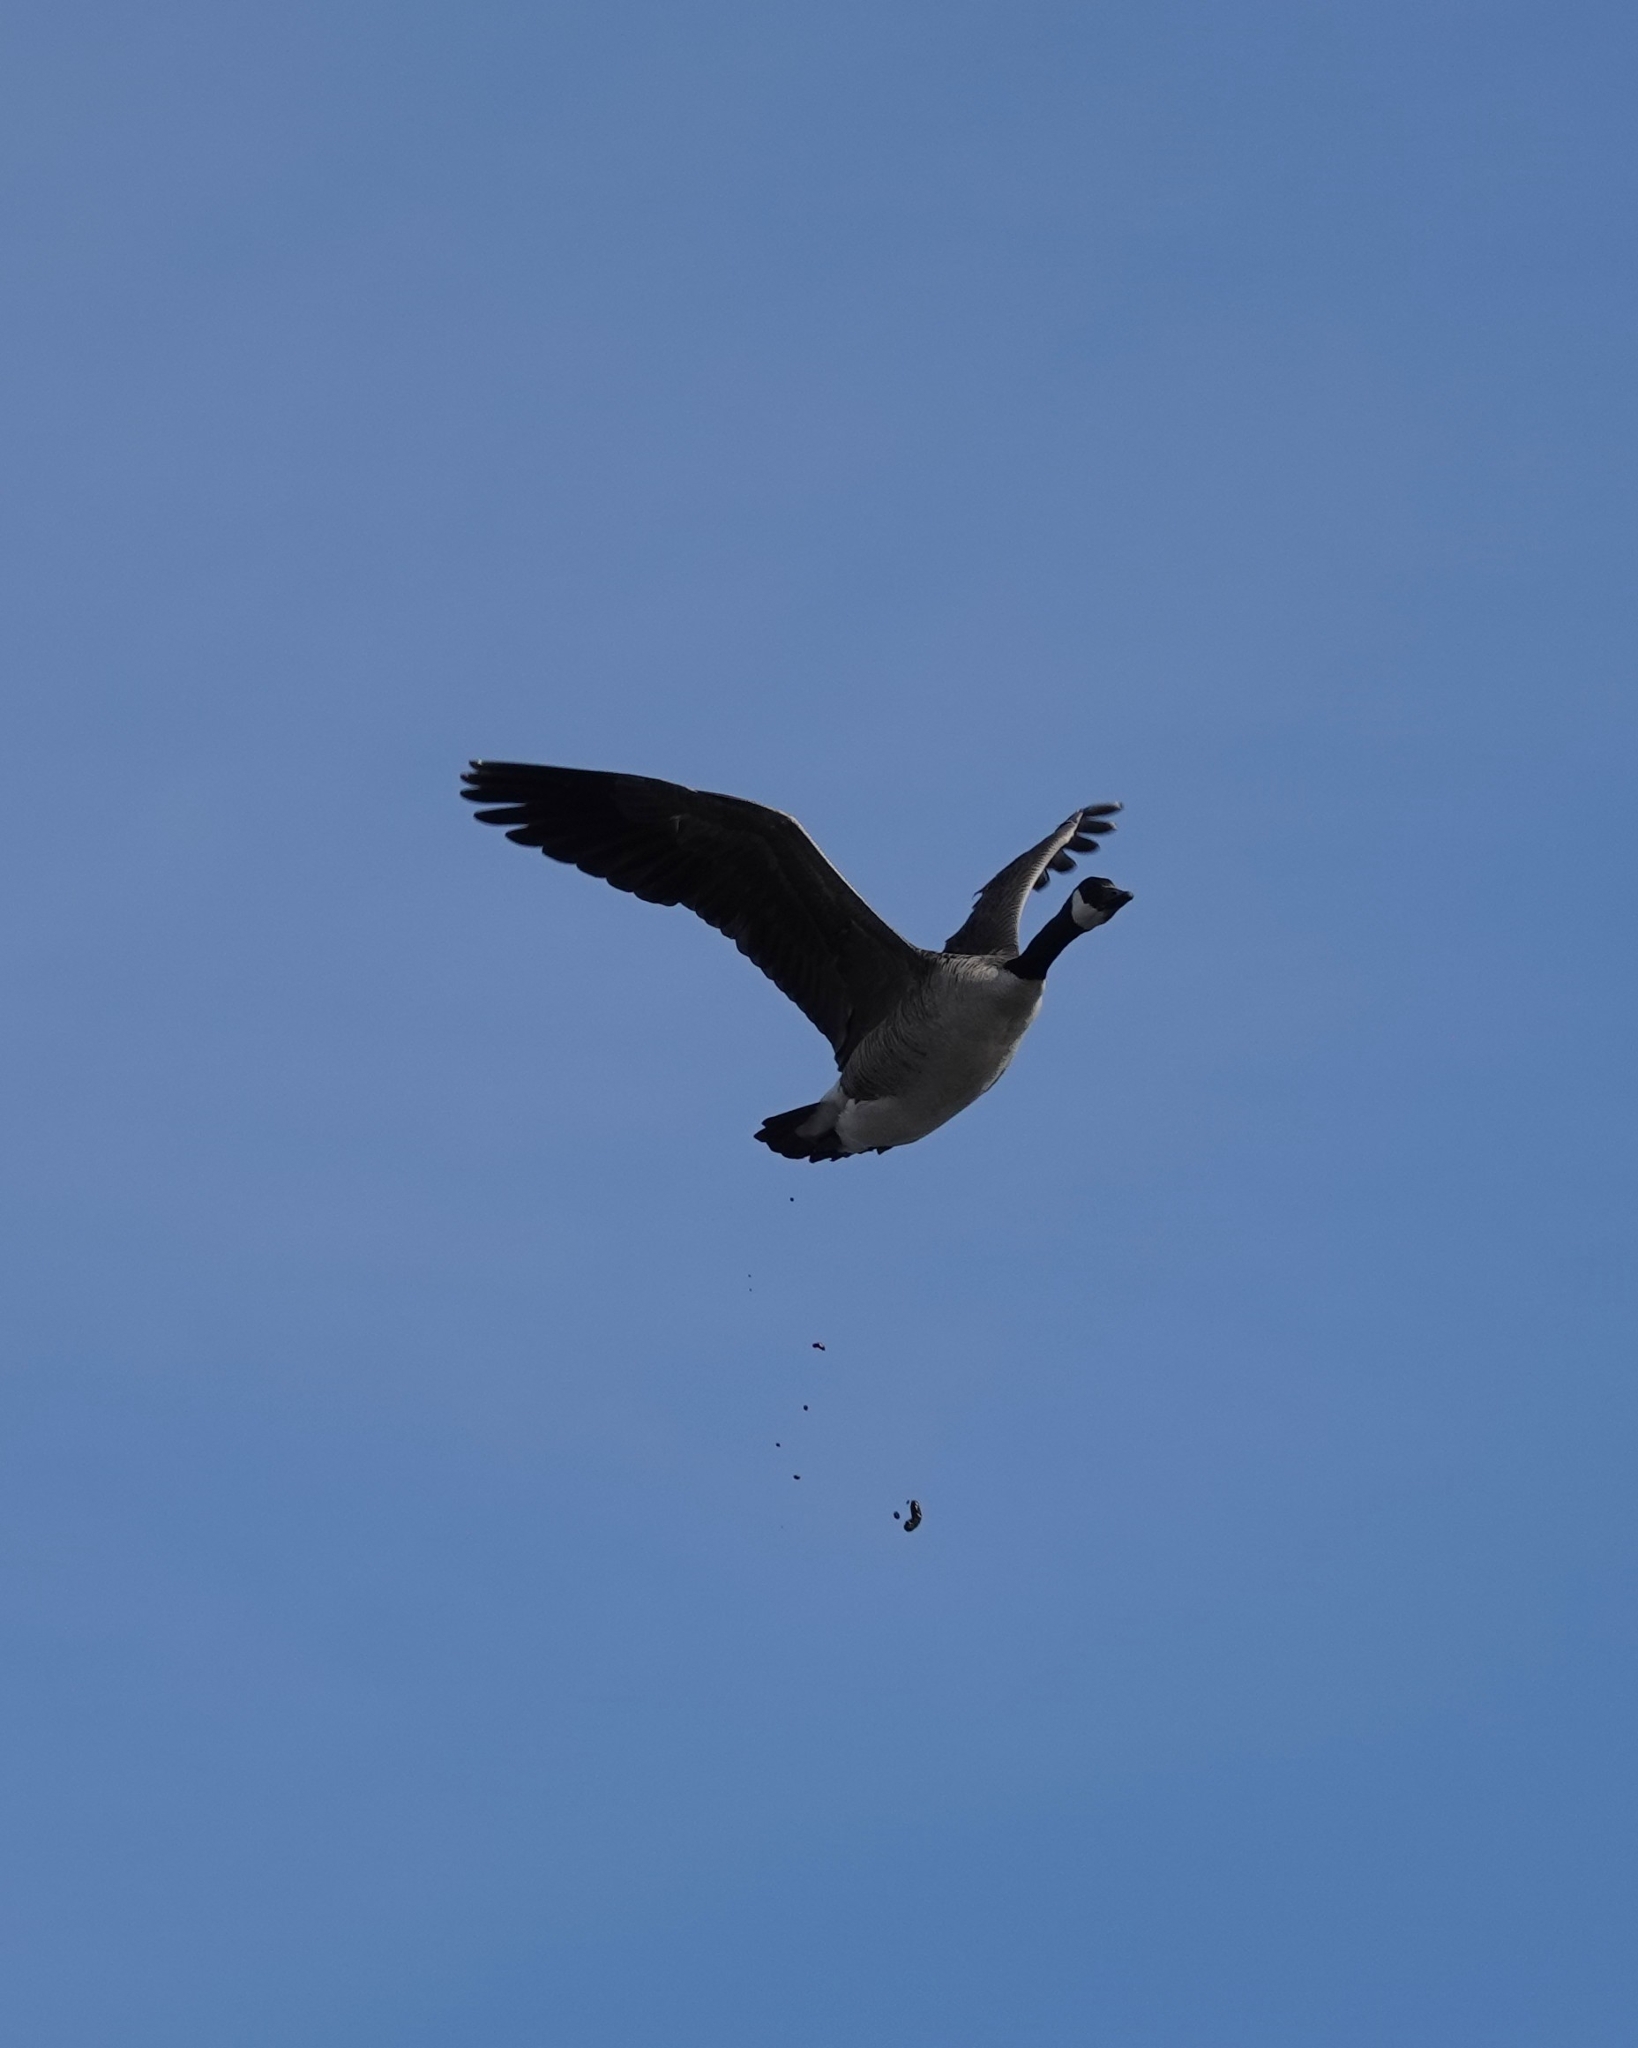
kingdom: Animalia
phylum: Chordata
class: Aves
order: Anseriformes
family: Anatidae
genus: Branta
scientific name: Branta canadensis
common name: Canada goose
